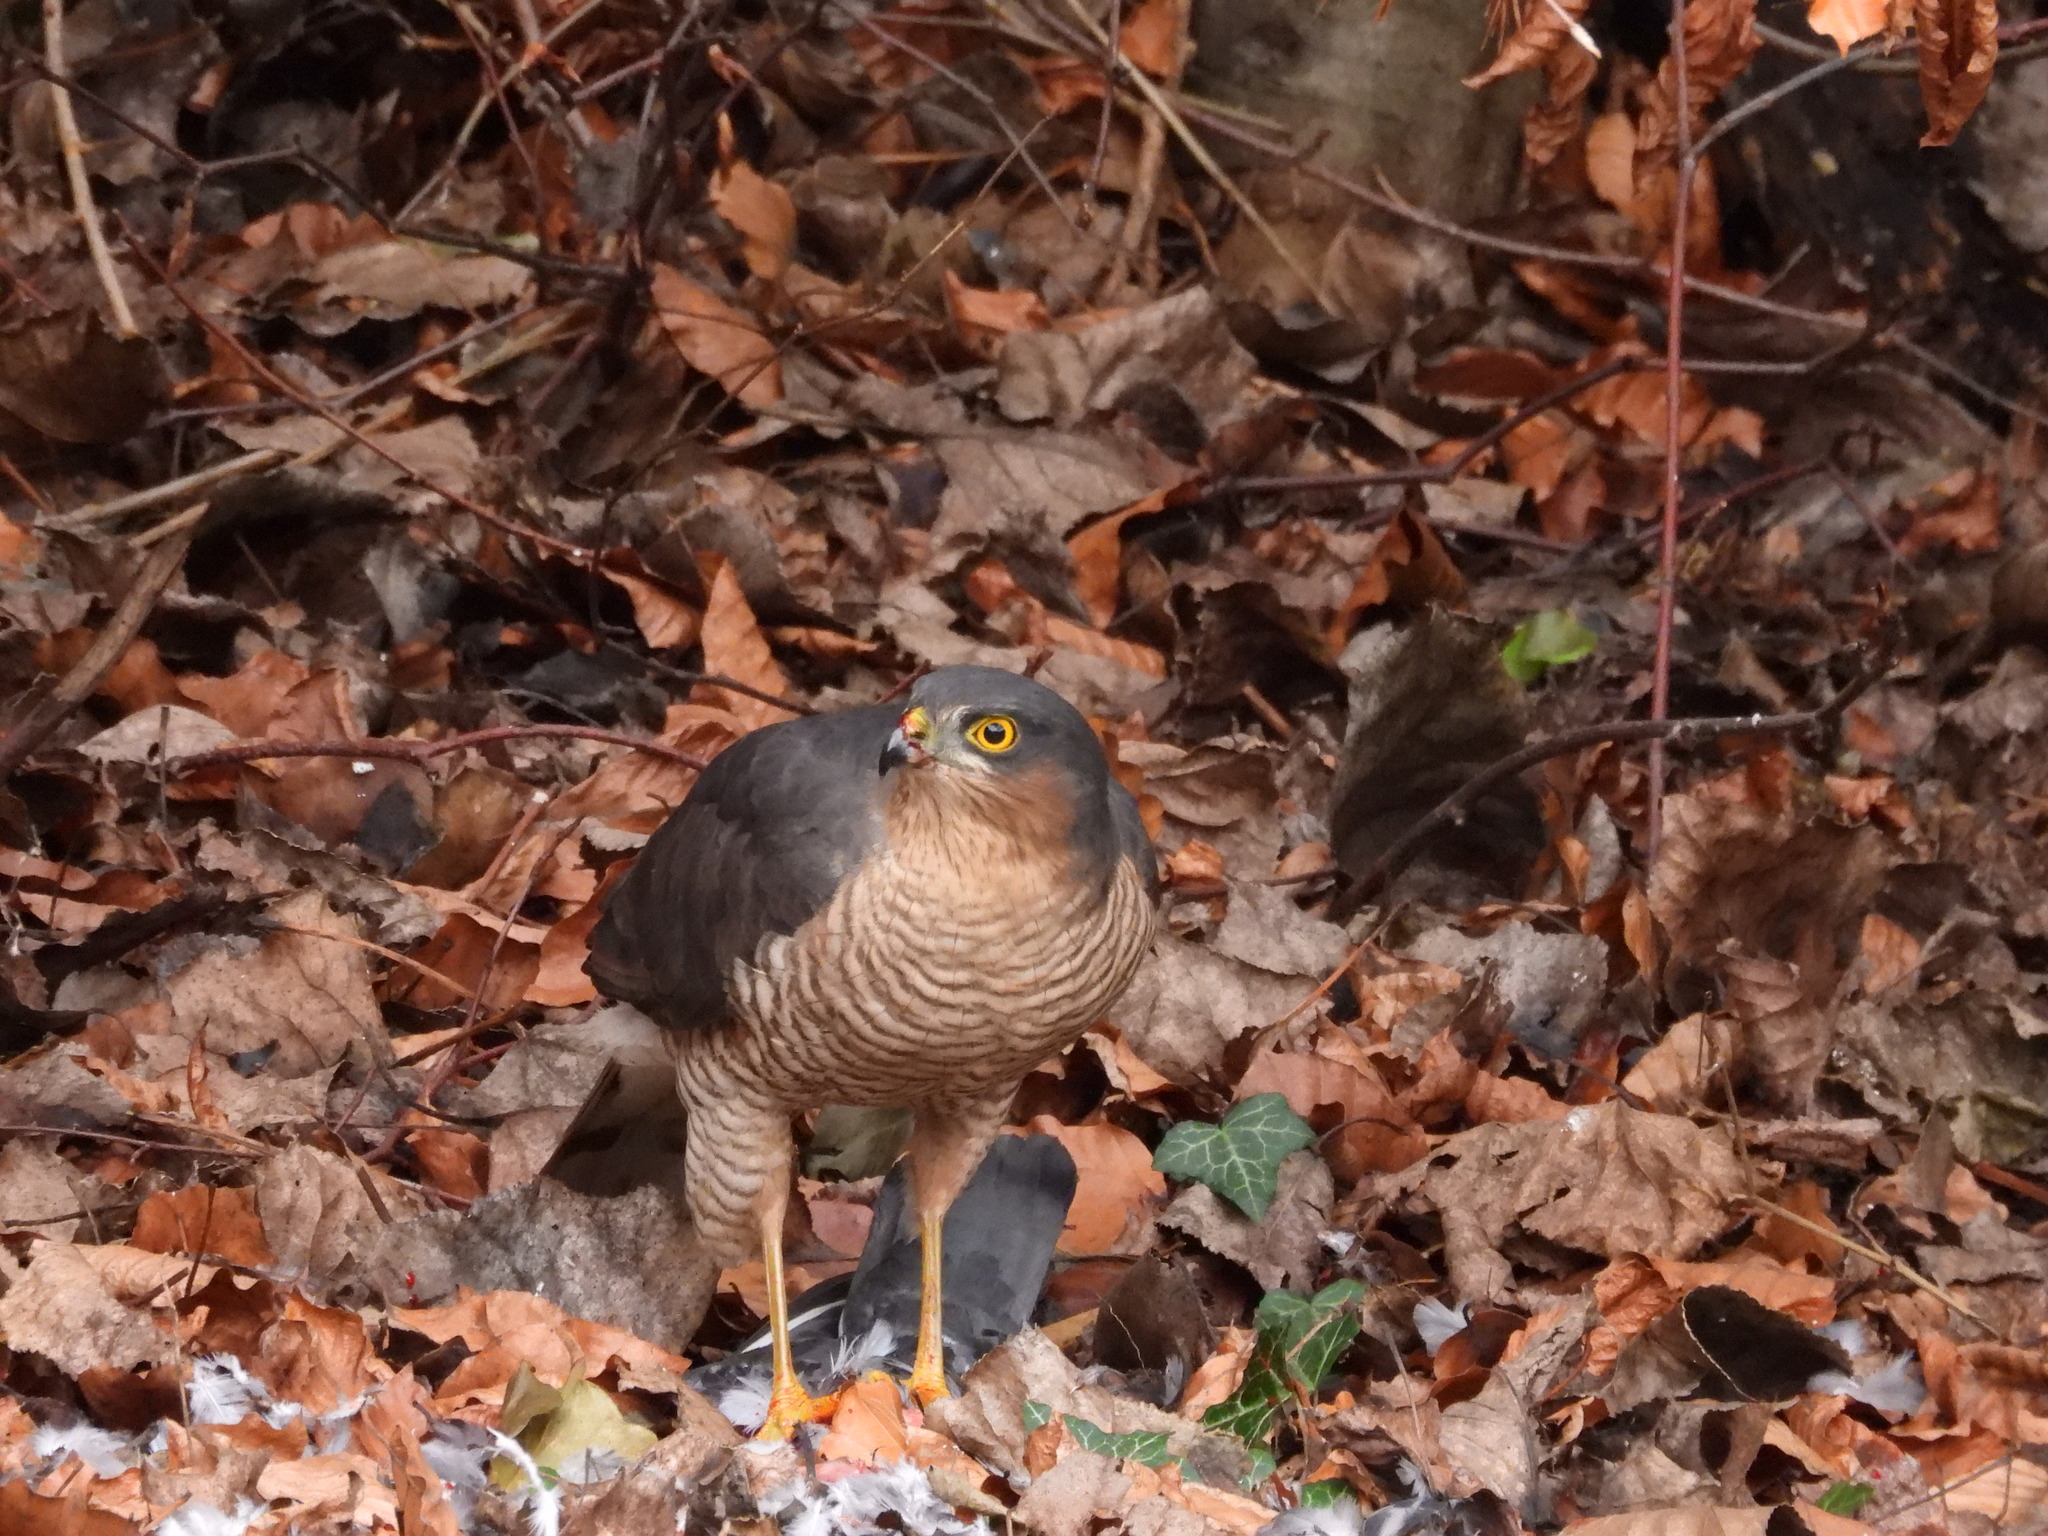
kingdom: Animalia
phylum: Chordata
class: Aves
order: Accipitriformes
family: Accipitridae
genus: Accipiter
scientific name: Accipiter nisus
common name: Eurasian sparrowhawk
